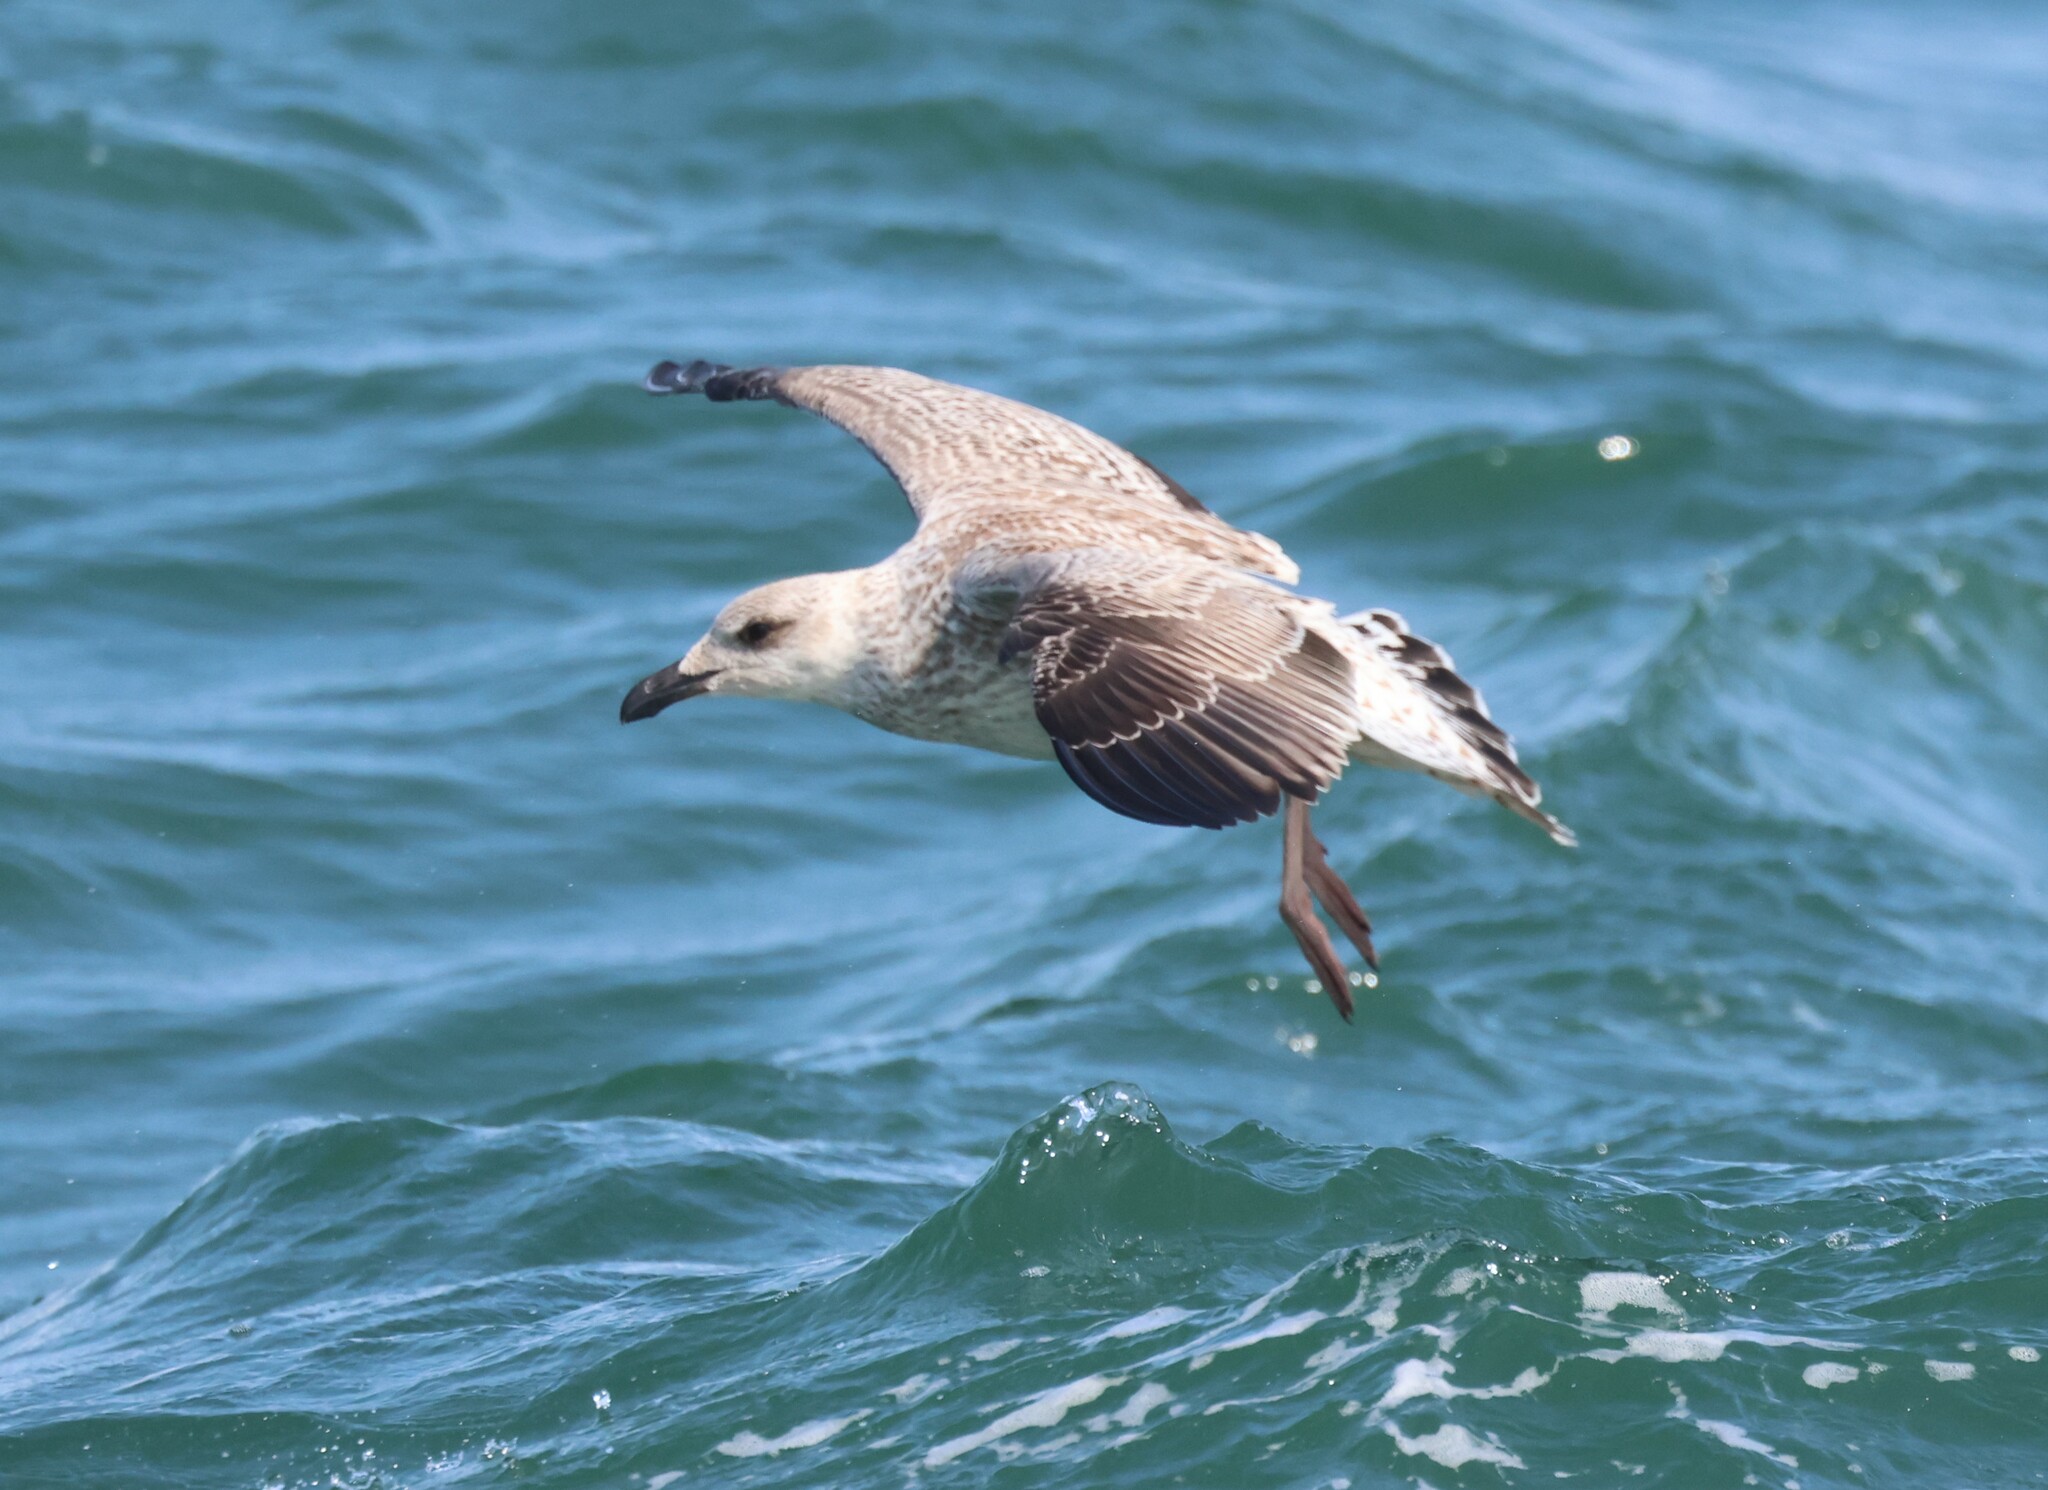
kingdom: Animalia
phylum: Chordata
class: Aves
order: Charadriiformes
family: Laridae
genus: Larus
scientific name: Larus marinus
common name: Great black-backed gull
